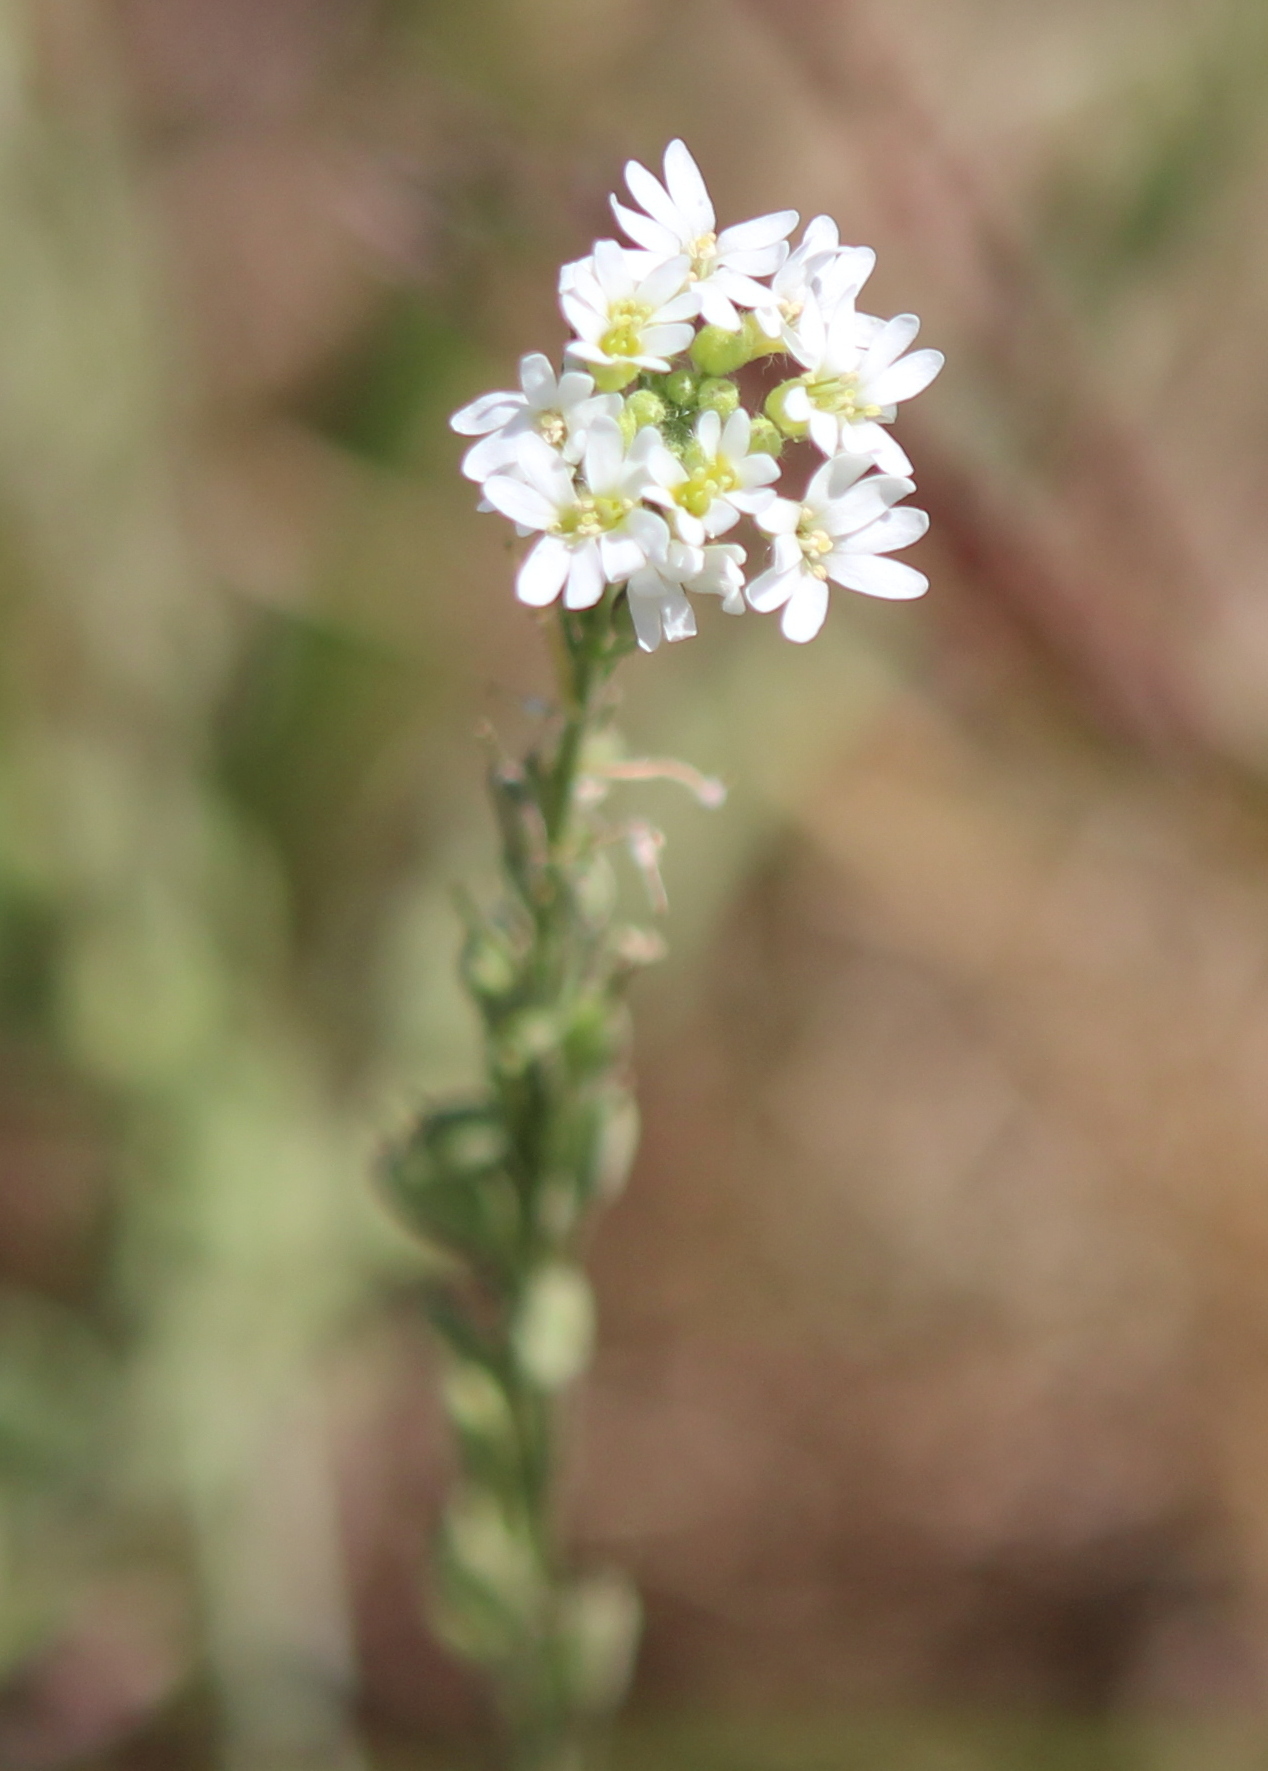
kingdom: Plantae
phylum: Tracheophyta
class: Magnoliopsida
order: Brassicales
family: Brassicaceae
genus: Berteroa
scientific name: Berteroa incana
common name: Hoary alison
